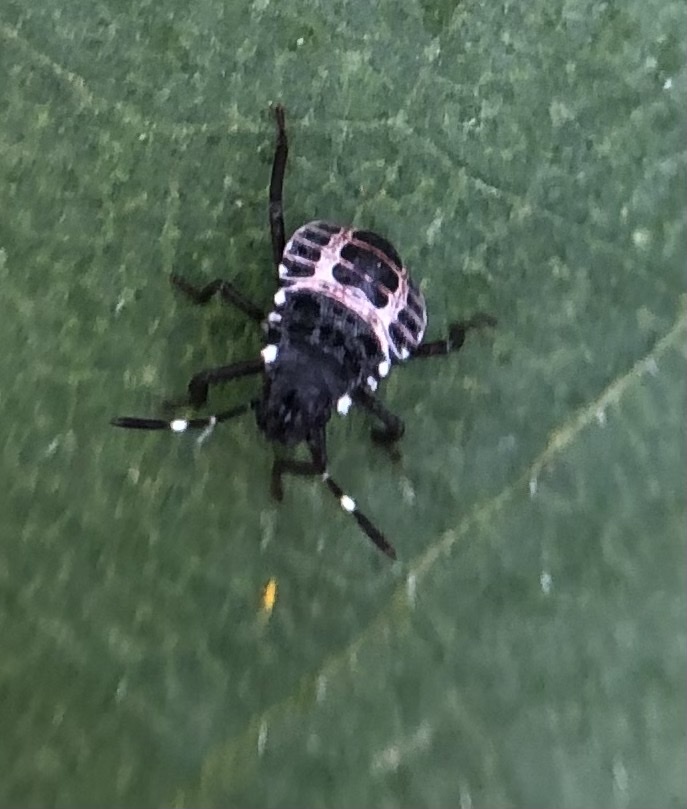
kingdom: Animalia
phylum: Arthropoda
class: Insecta
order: Hemiptera
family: Pentatomidae
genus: Halyomorpha
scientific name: Halyomorpha halys
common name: Brown marmorated stink bug
